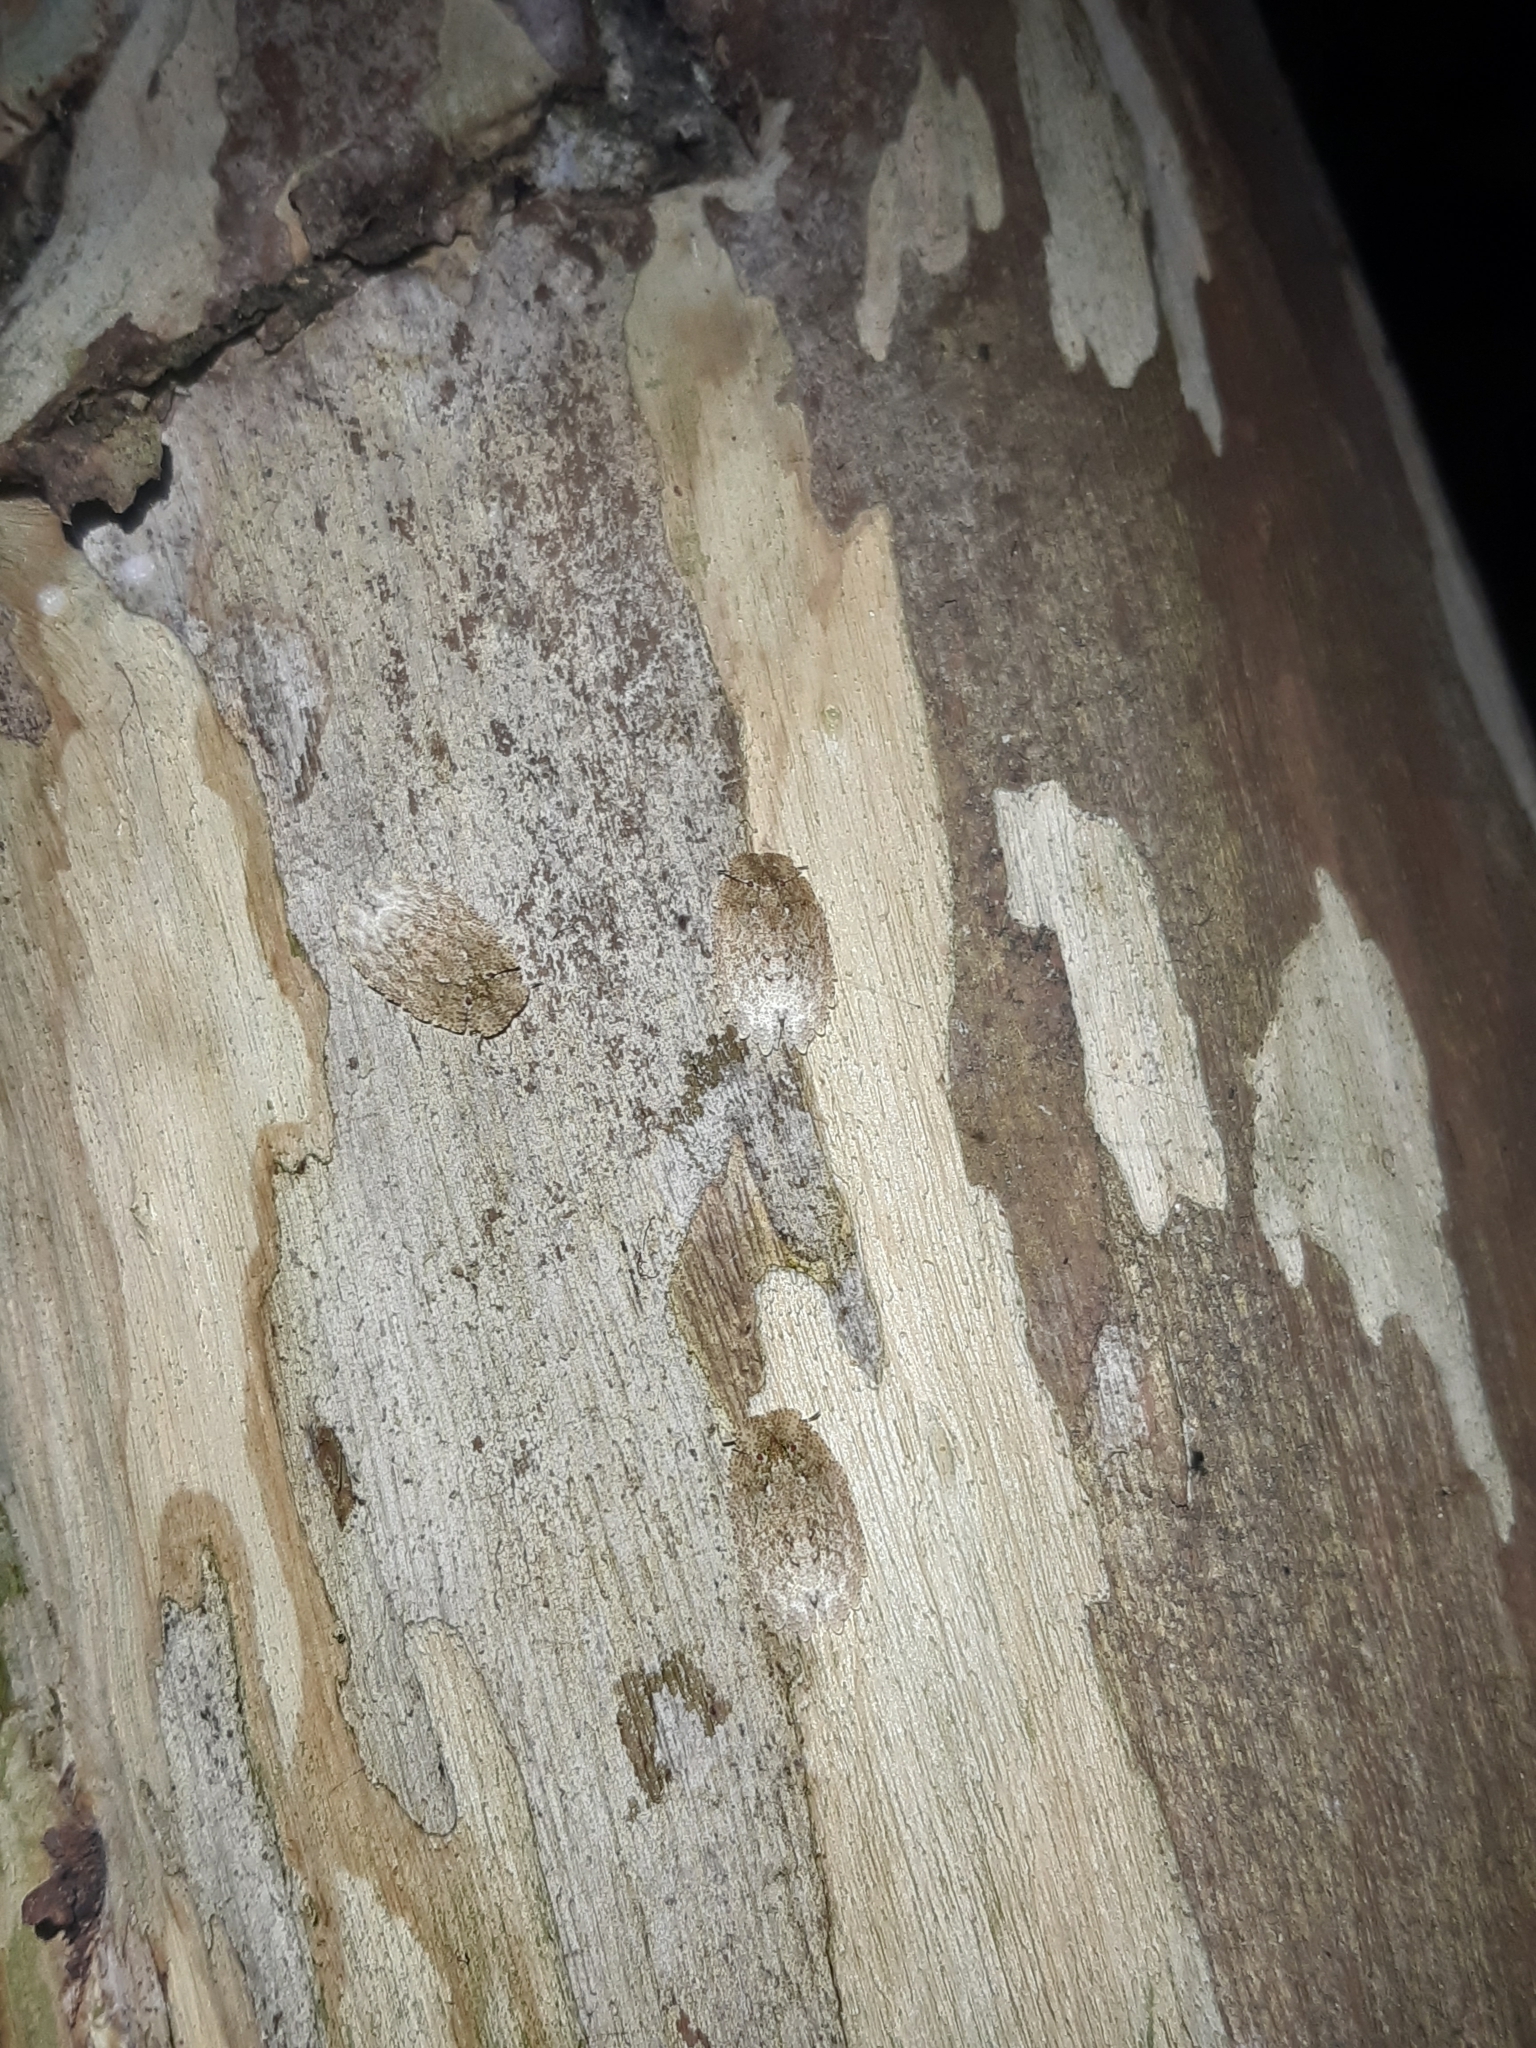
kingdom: Animalia
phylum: Arthropoda
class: Insecta
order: Hemiptera
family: Phleides
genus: Phloea
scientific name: Phloea
